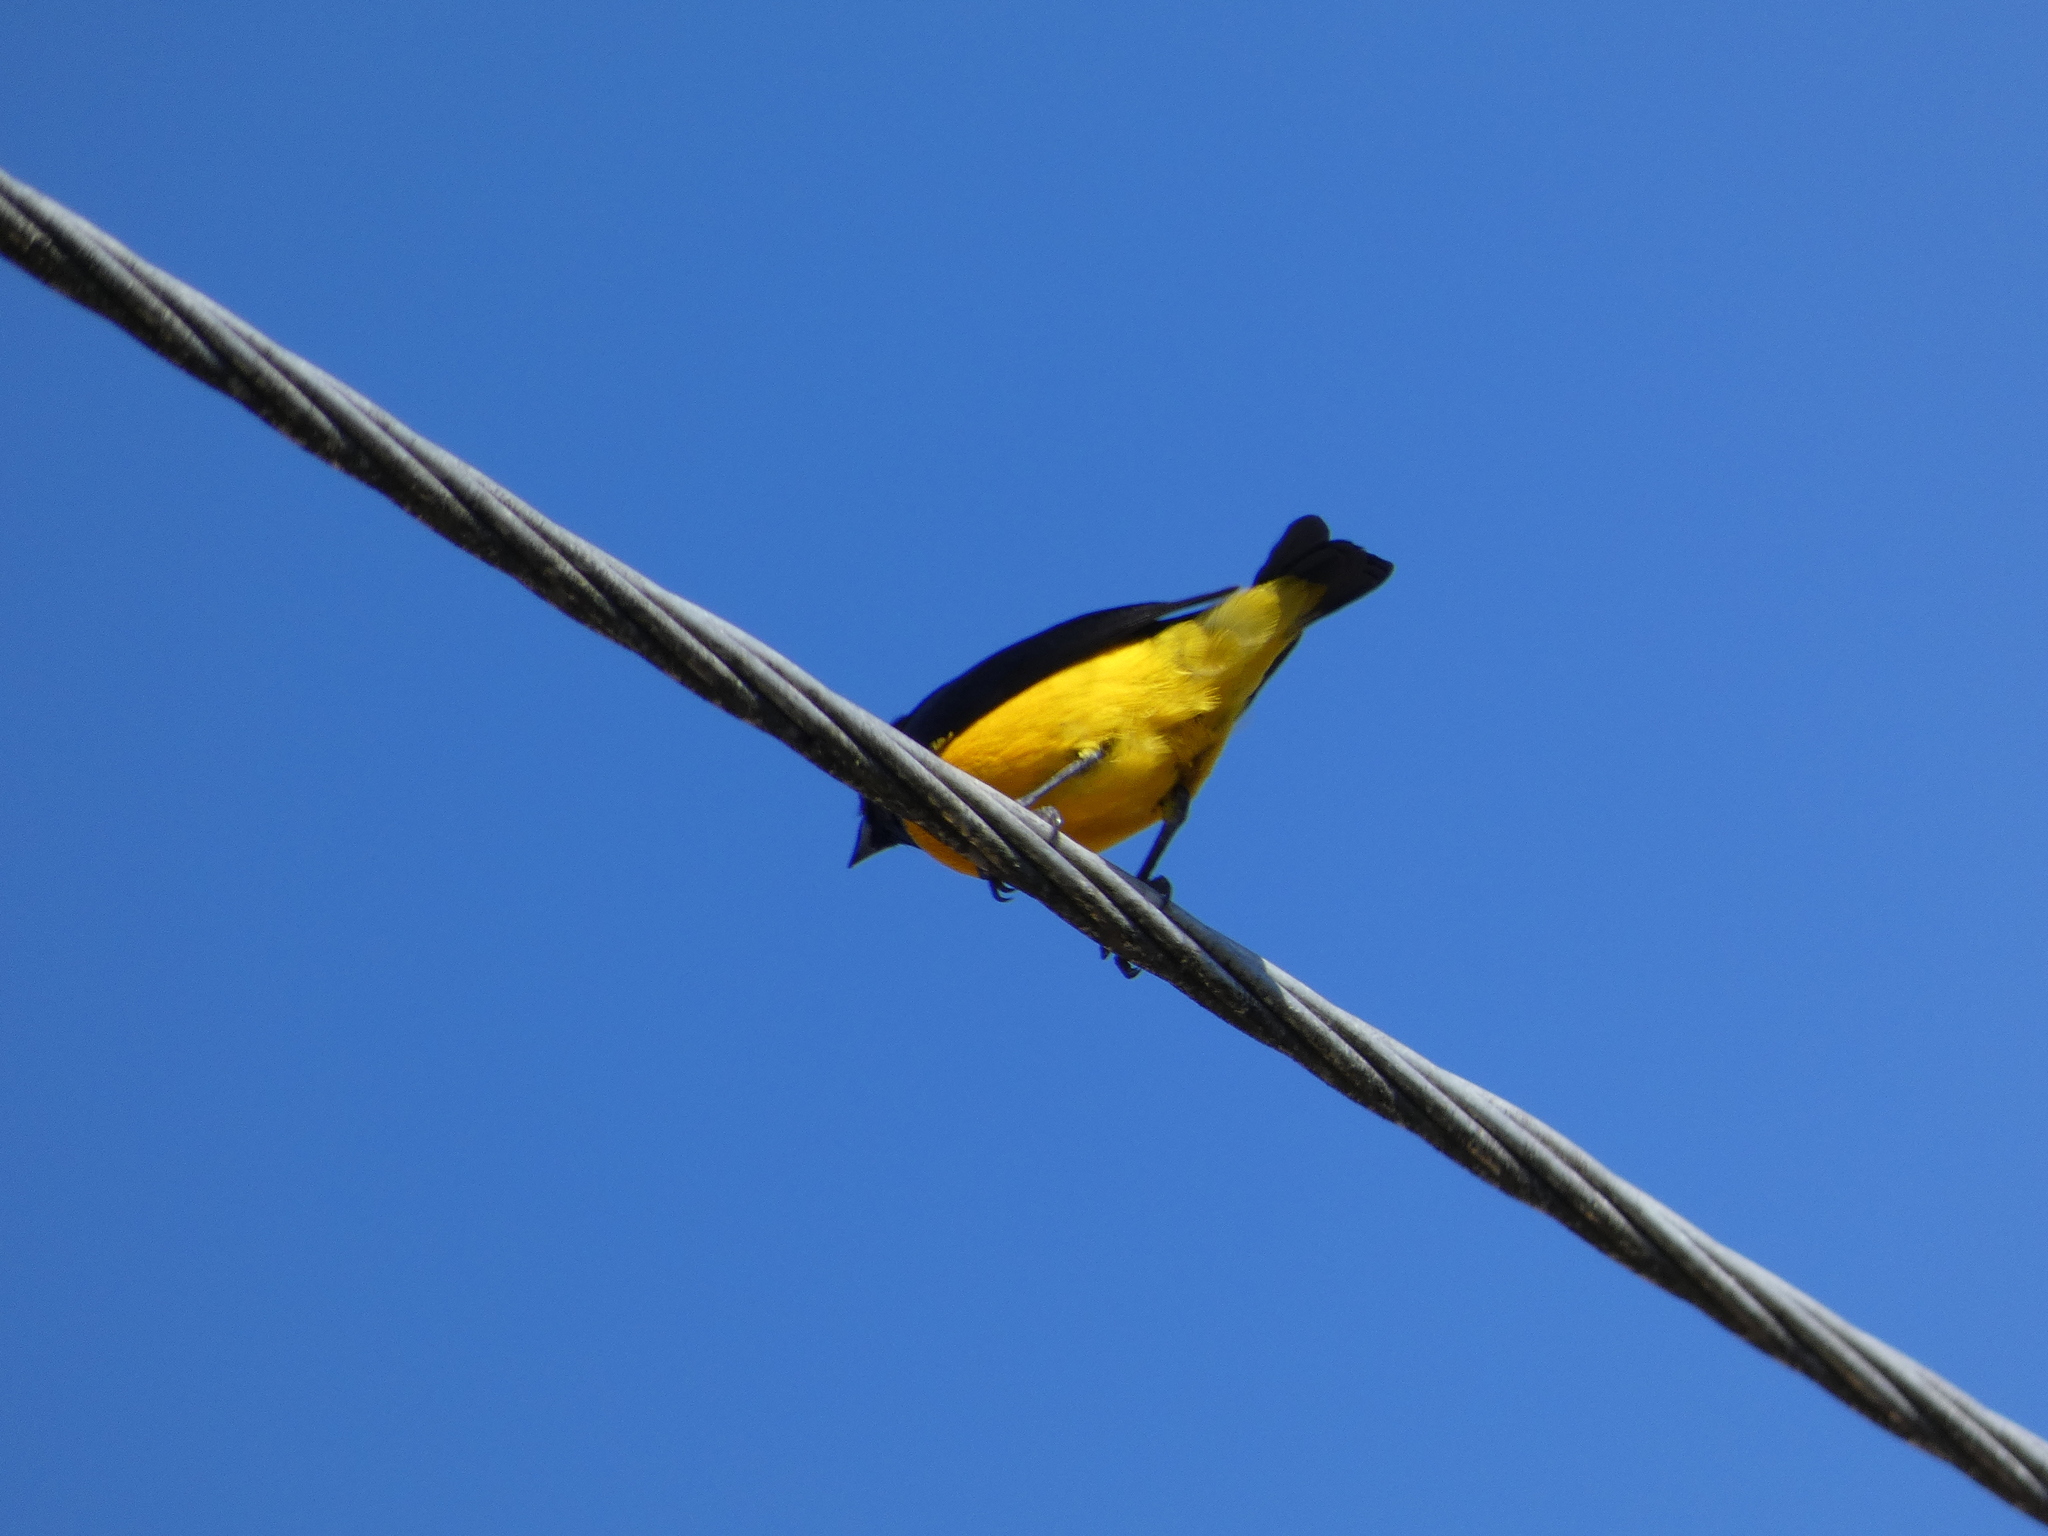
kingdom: Animalia
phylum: Chordata
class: Aves
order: Passeriformes
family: Fringillidae
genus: Euphonia
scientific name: Euphonia luteicapilla
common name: Yellow-crowned euphonia
